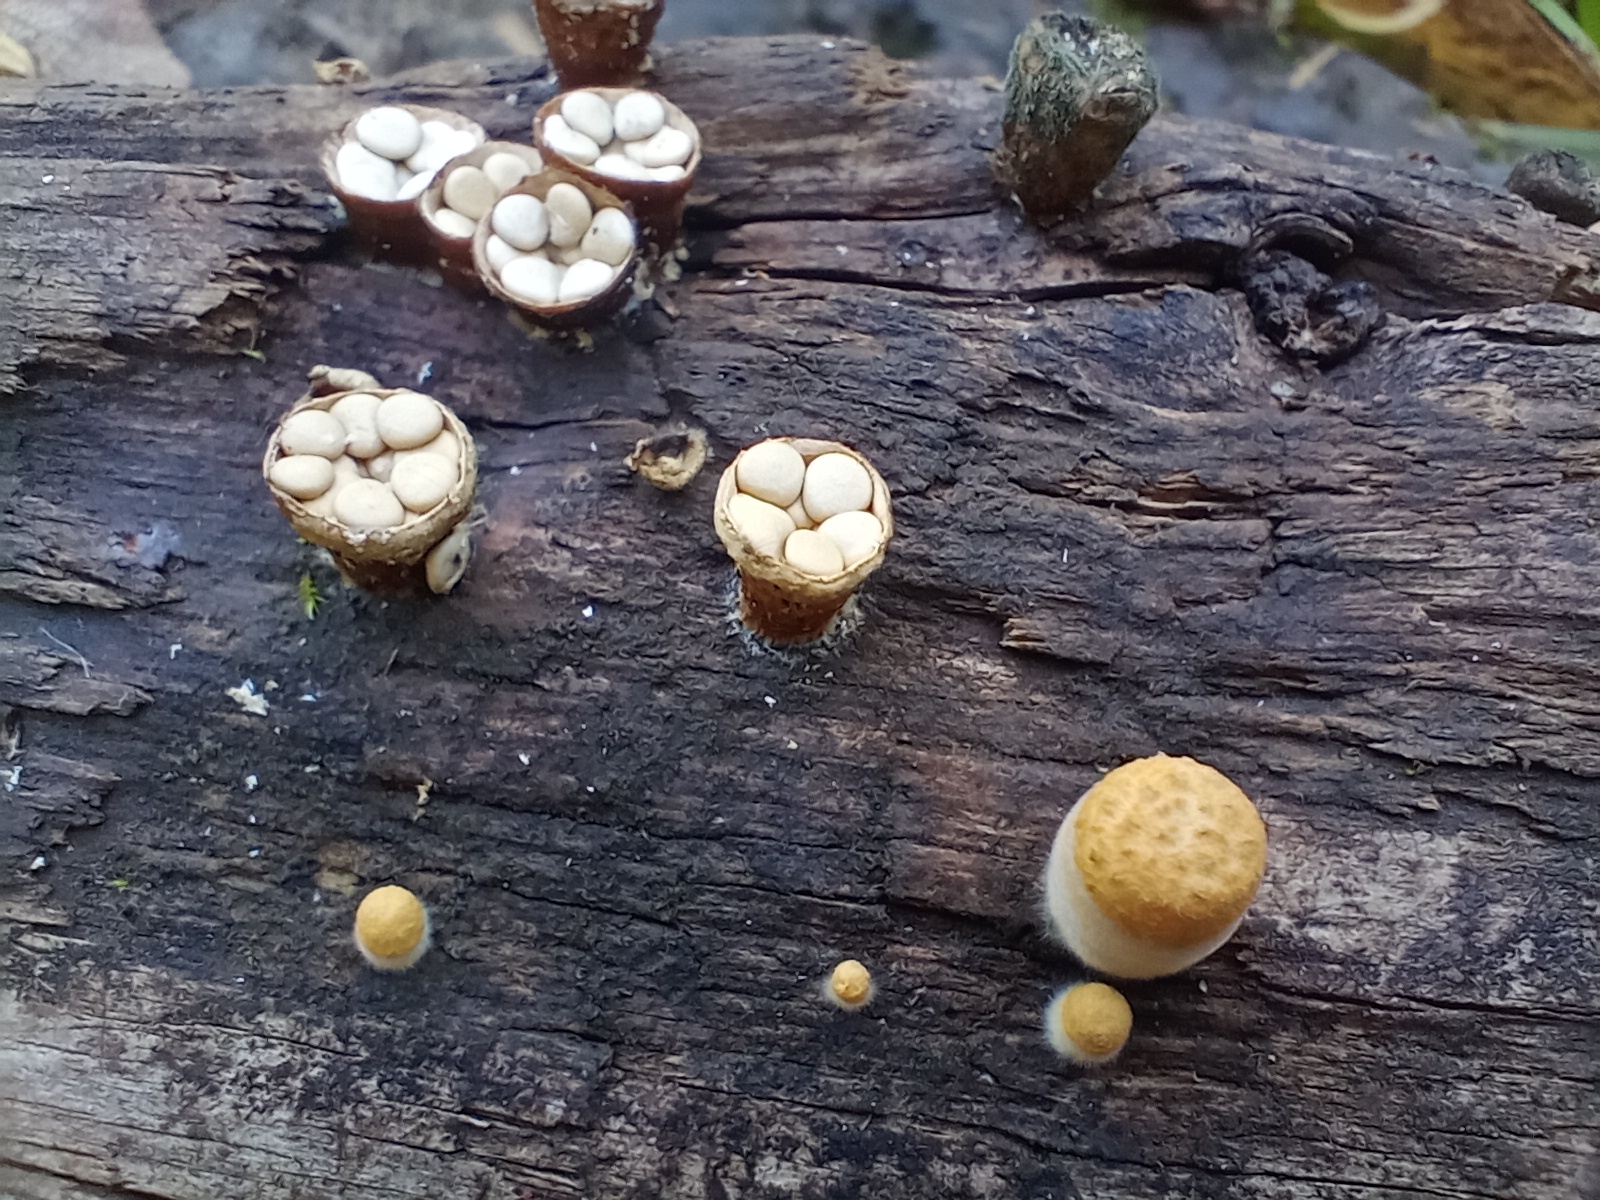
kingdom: Fungi
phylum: Basidiomycota
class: Agaricomycetes
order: Agaricales
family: Nidulariaceae
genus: Crucibulum
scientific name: Crucibulum laeve
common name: Common bird's nest
